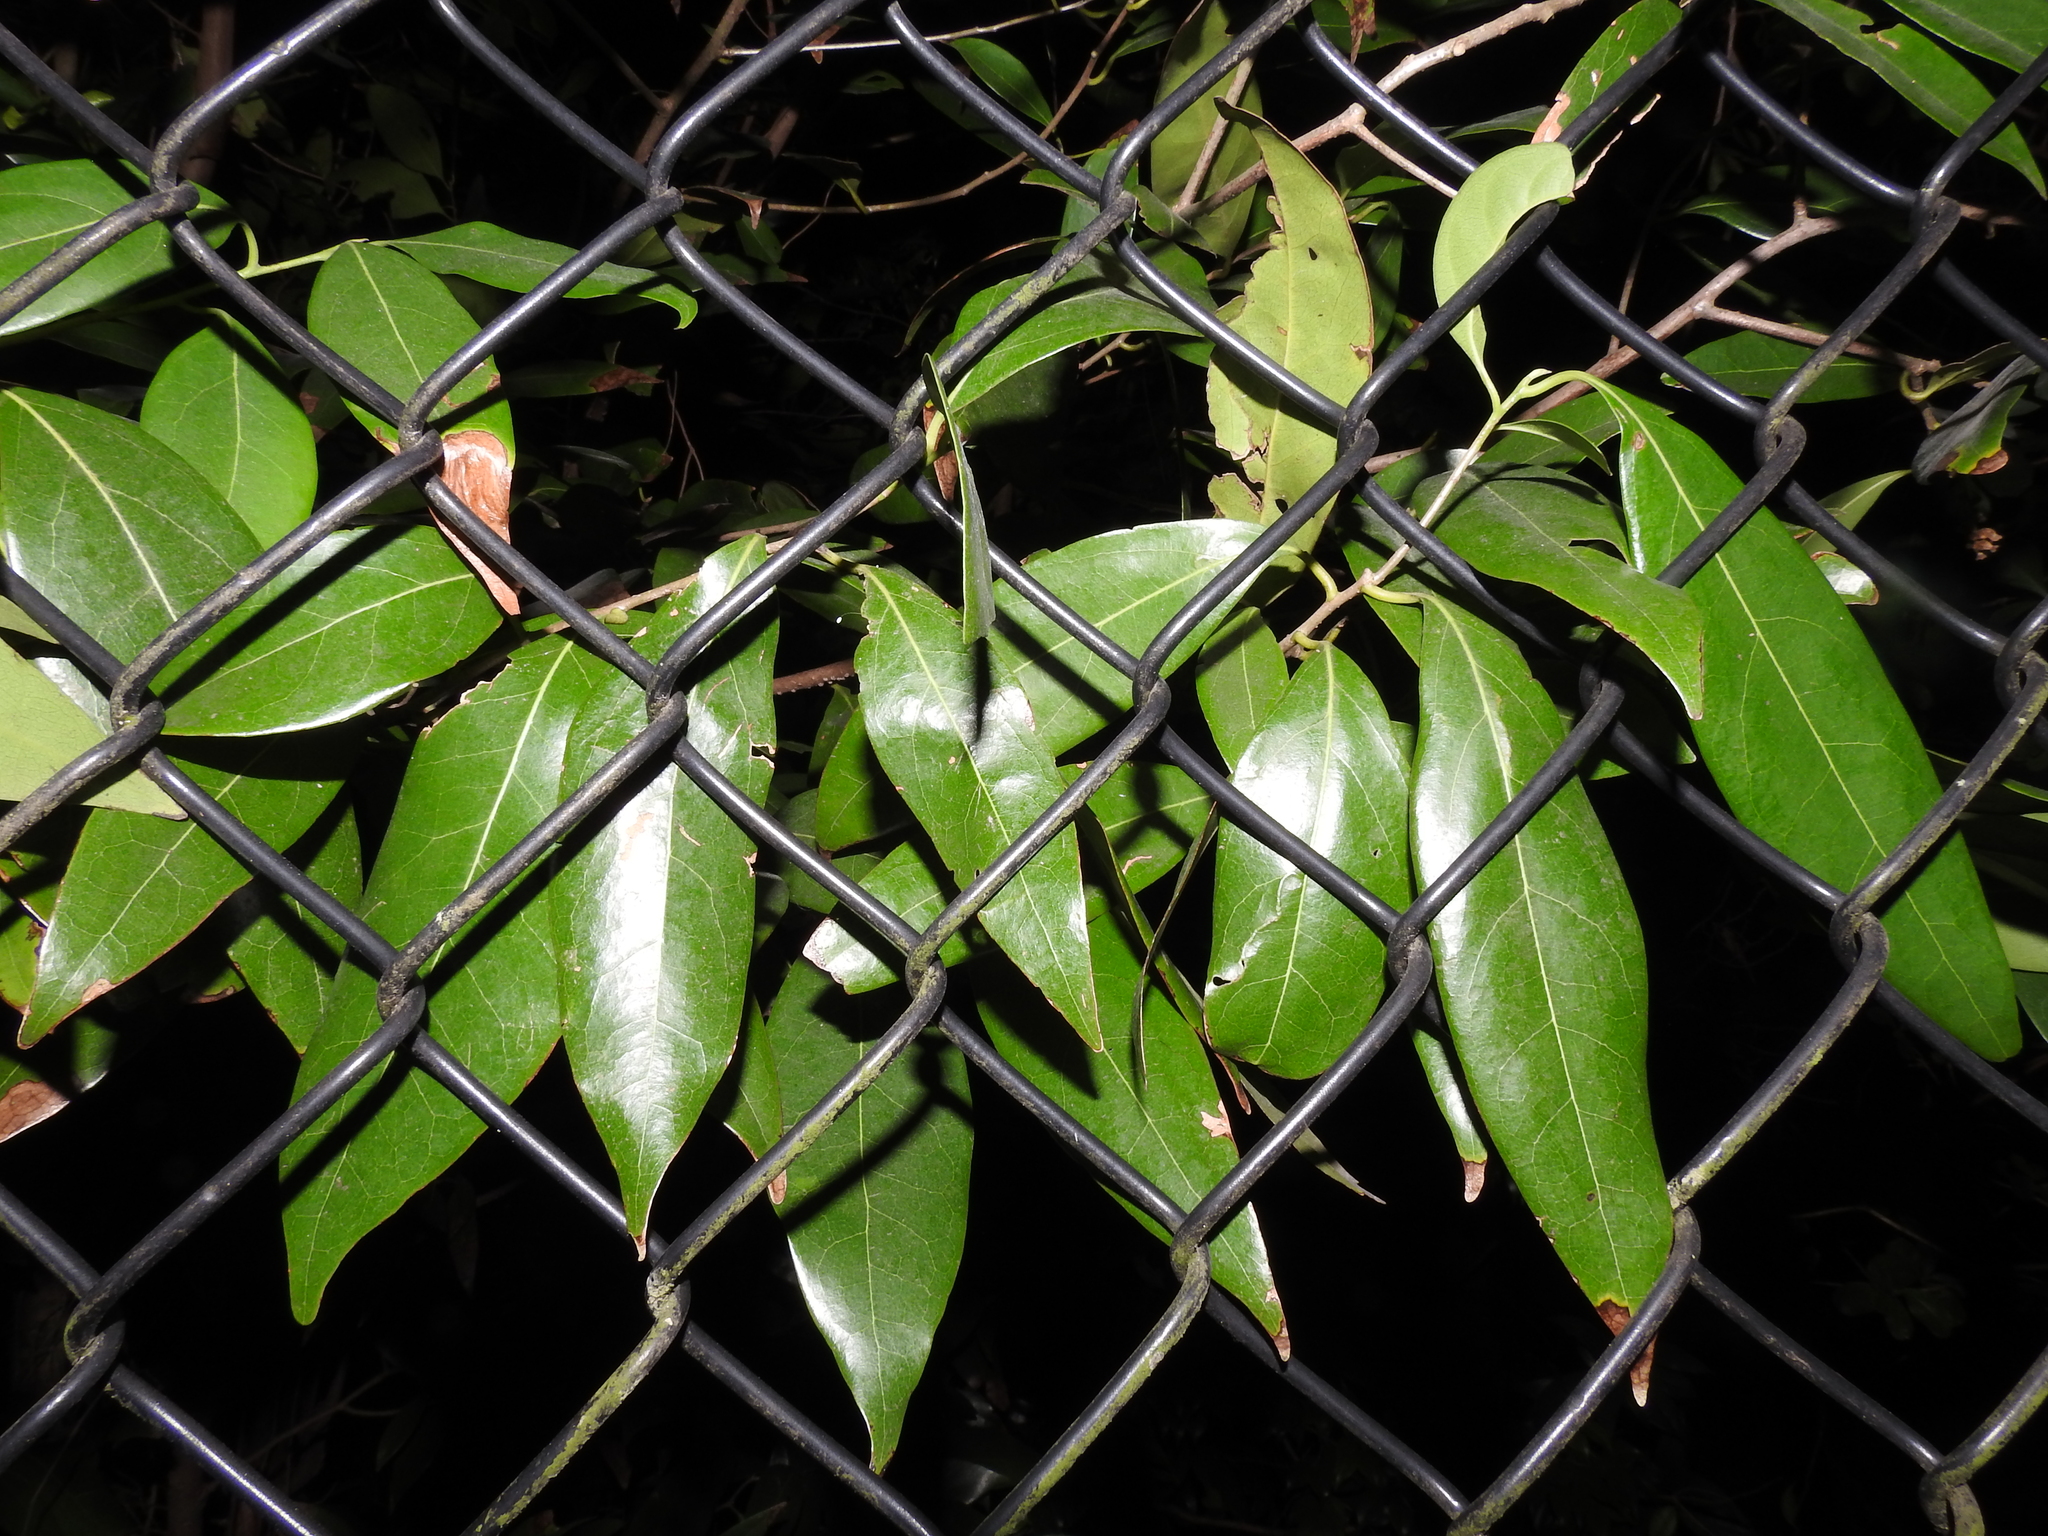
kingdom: Plantae
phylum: Tracheophyta
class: Magnoliopsida
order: Laurales
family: Lauraceae
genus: Damburneya
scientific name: Damburneya
